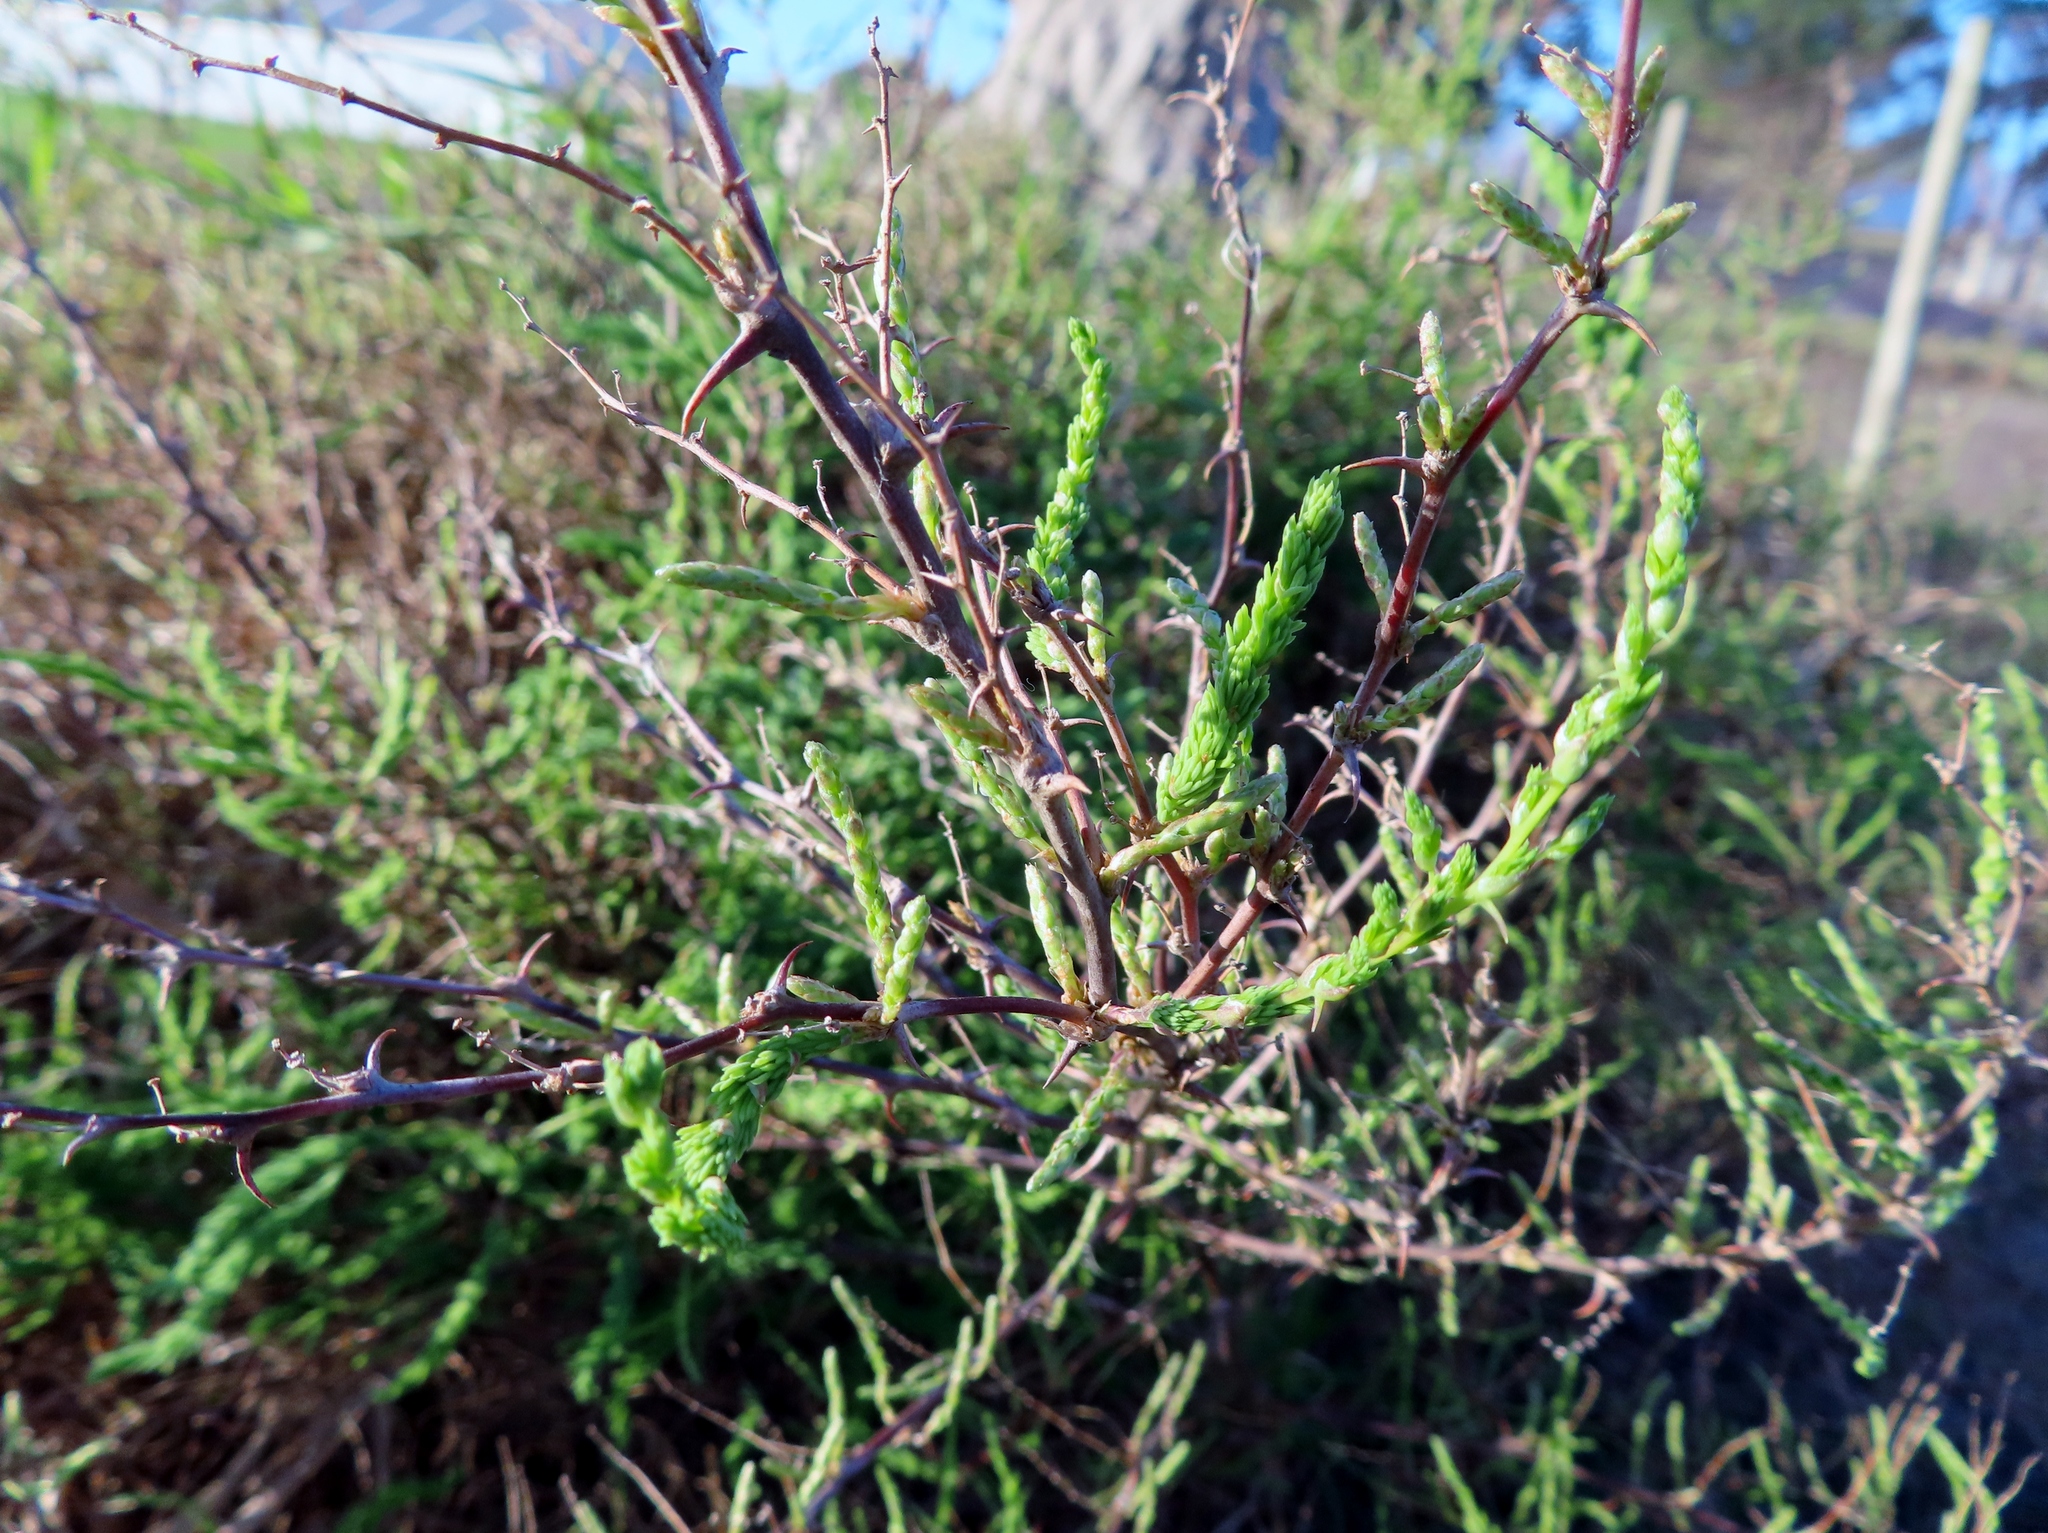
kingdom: Plantae
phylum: Tracheophyta
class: Liliopsida
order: Asparagales
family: Asparagaceae
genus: Asparagus
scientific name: Asparagus rubicundus
